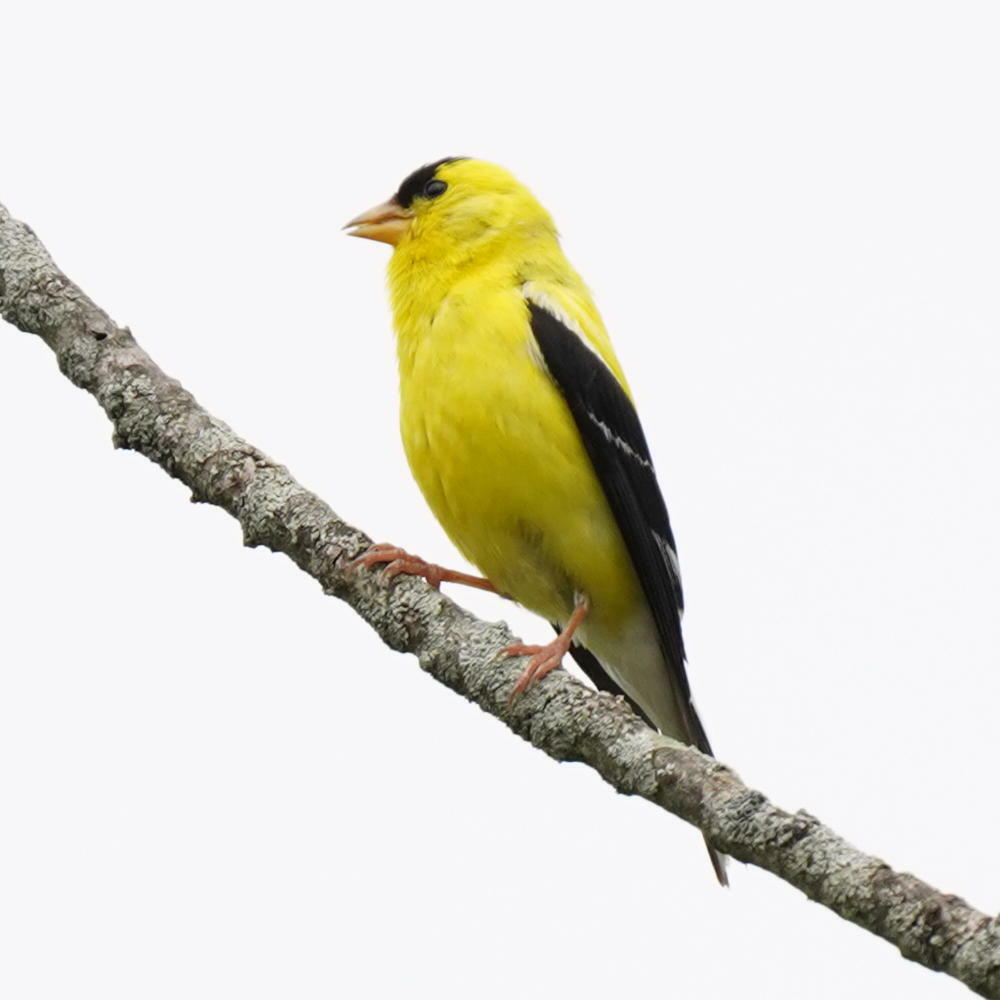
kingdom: Animalia
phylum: Chordata
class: Aves
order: Passeriformes
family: Fringillidae
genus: Spinus
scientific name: Spinus tristis
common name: American goldfinch
